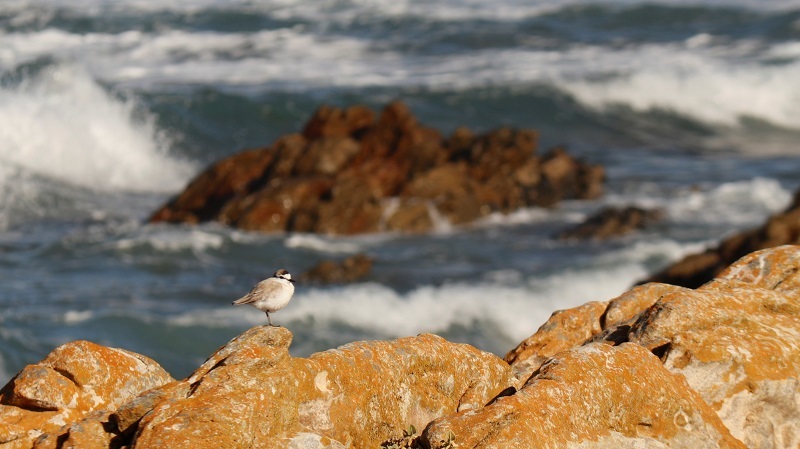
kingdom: Animalia
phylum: Chordata
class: Aves
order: Charadriiformes
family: Charadriidae
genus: Anarhynchus
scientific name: Anarhynchus
